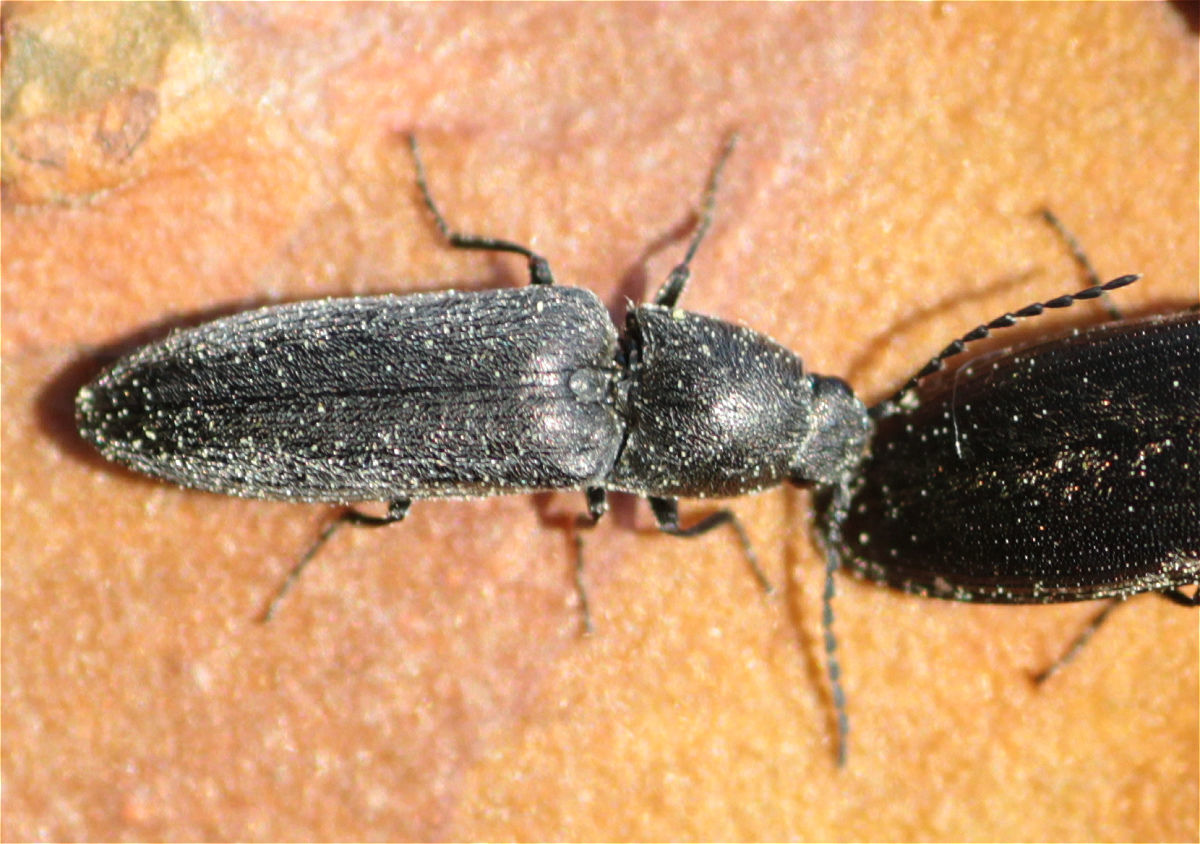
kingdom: Animalia
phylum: Arthropoda
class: Insecta
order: Coleoptera
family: Elateridae
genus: Cidnopus
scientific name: Cidnopus aeruginosus
